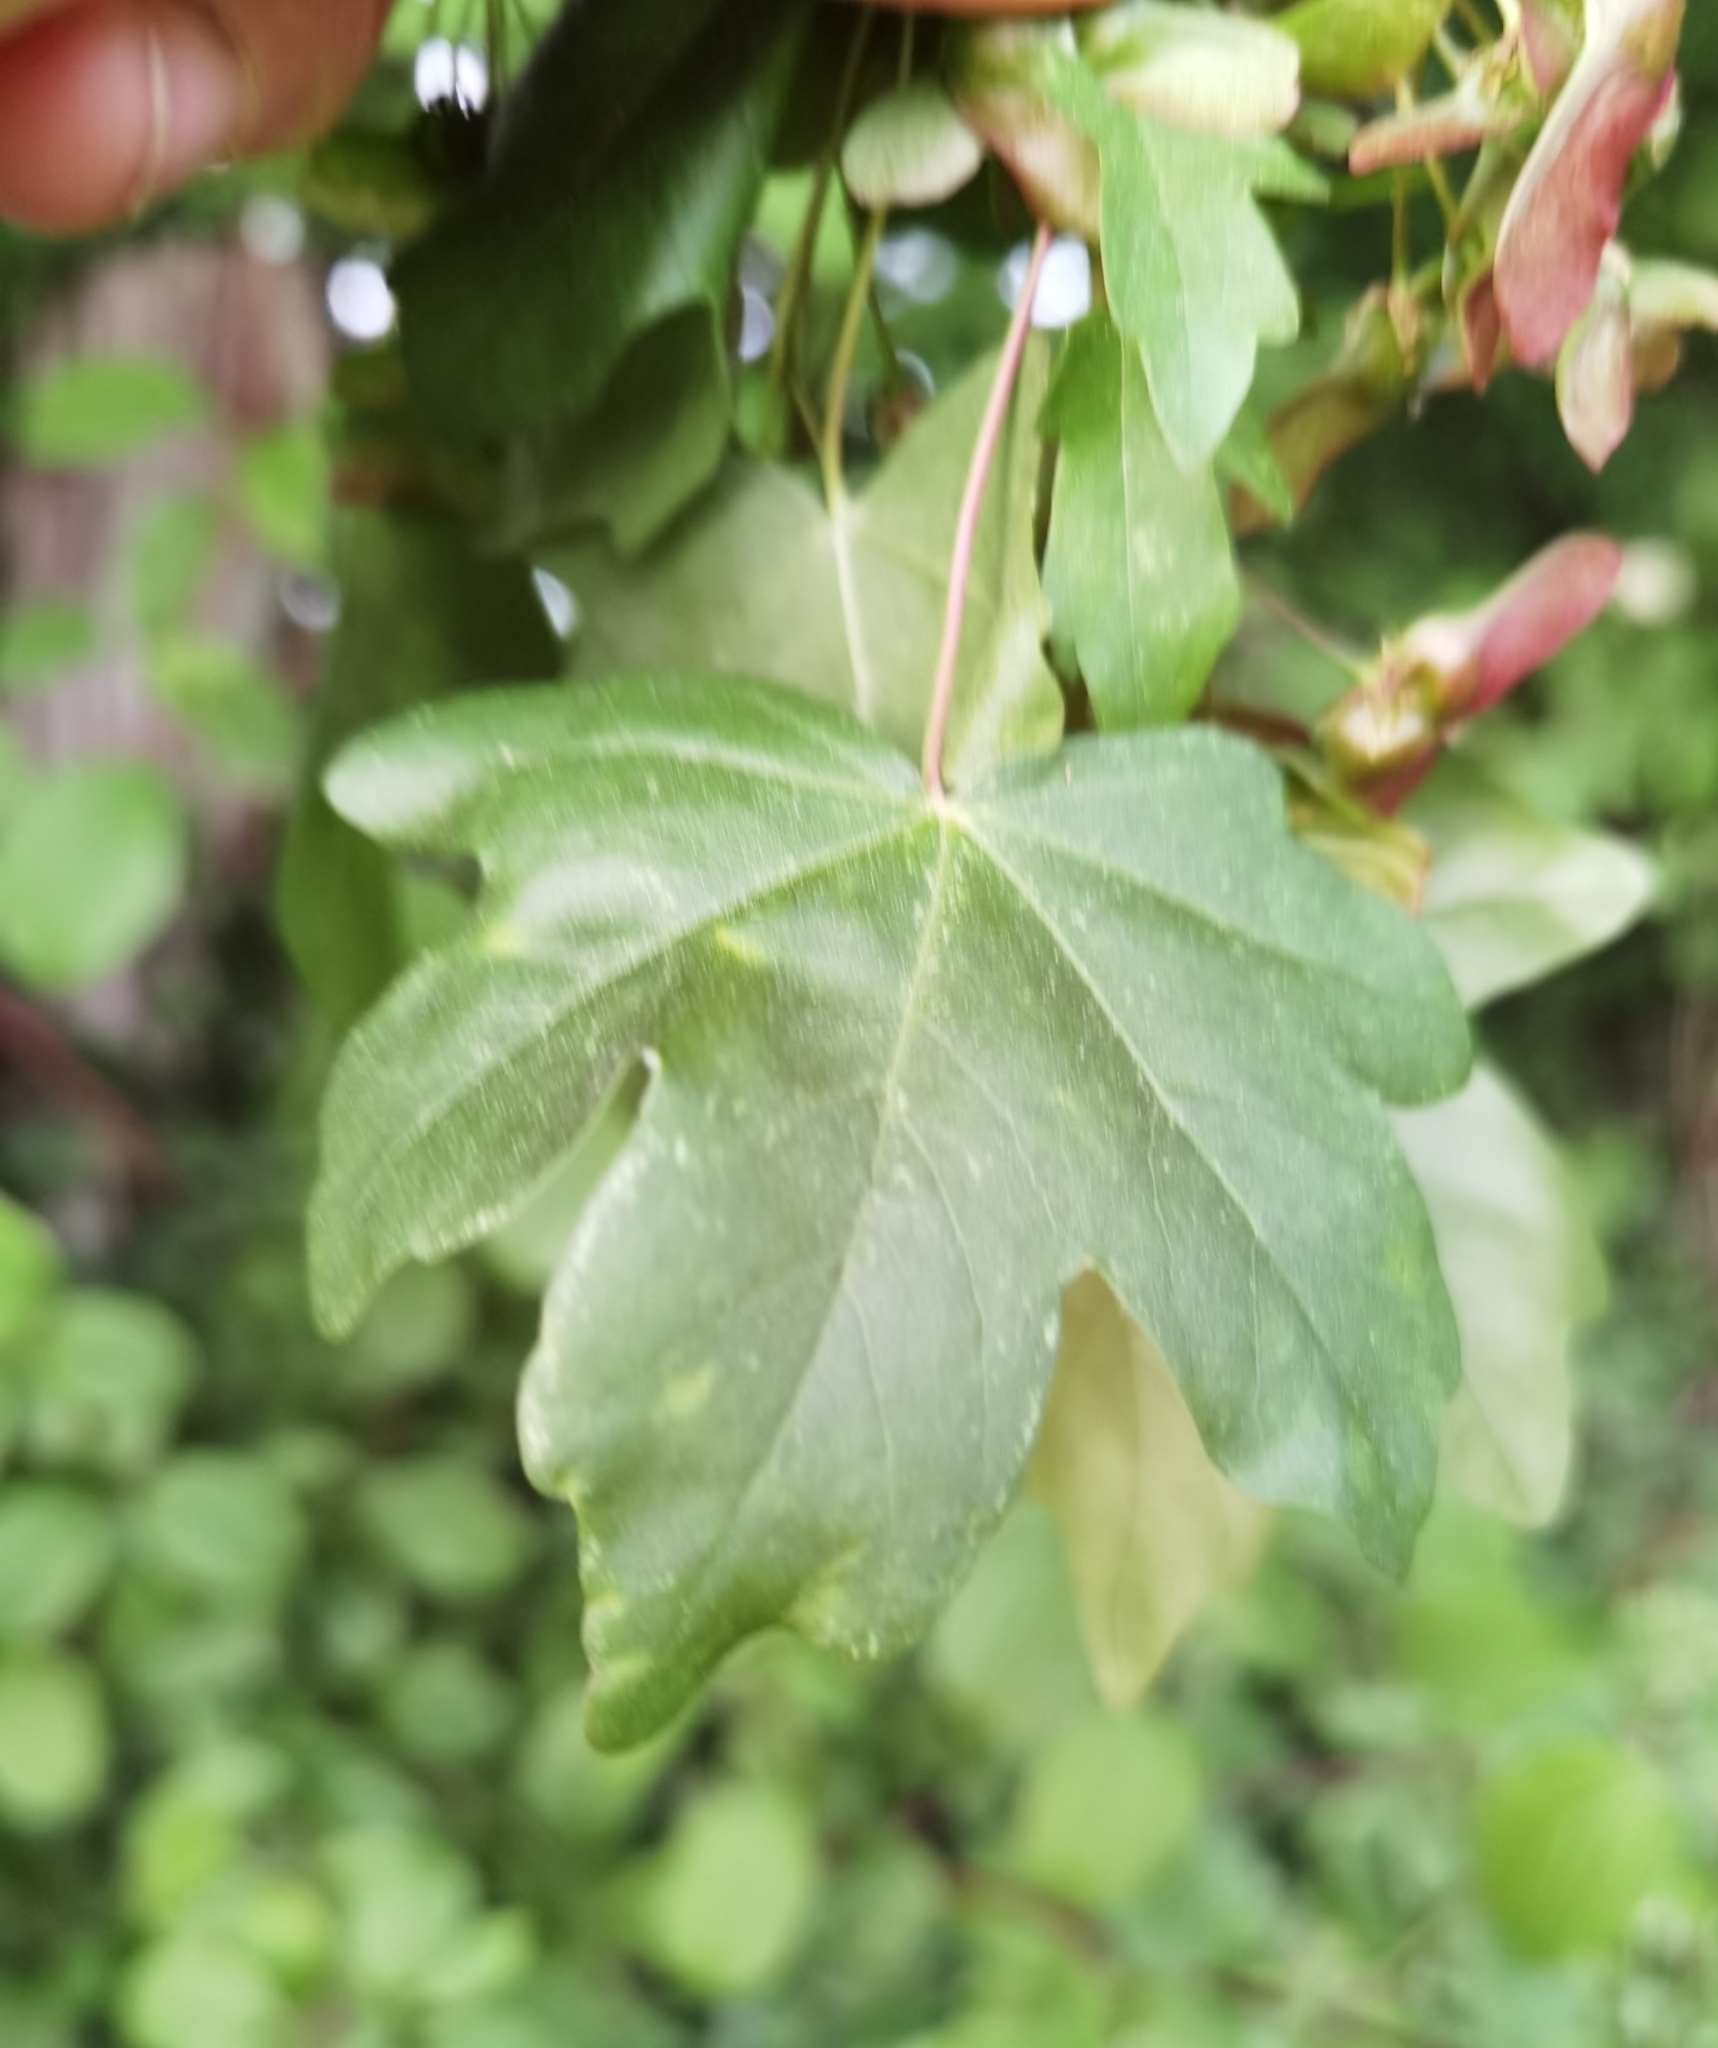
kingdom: Plantae
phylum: Tracheophyta
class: Magnoliopsida
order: Sapindales
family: Sapindaceae
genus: Acer
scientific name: Acer campestre
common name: Field maple
